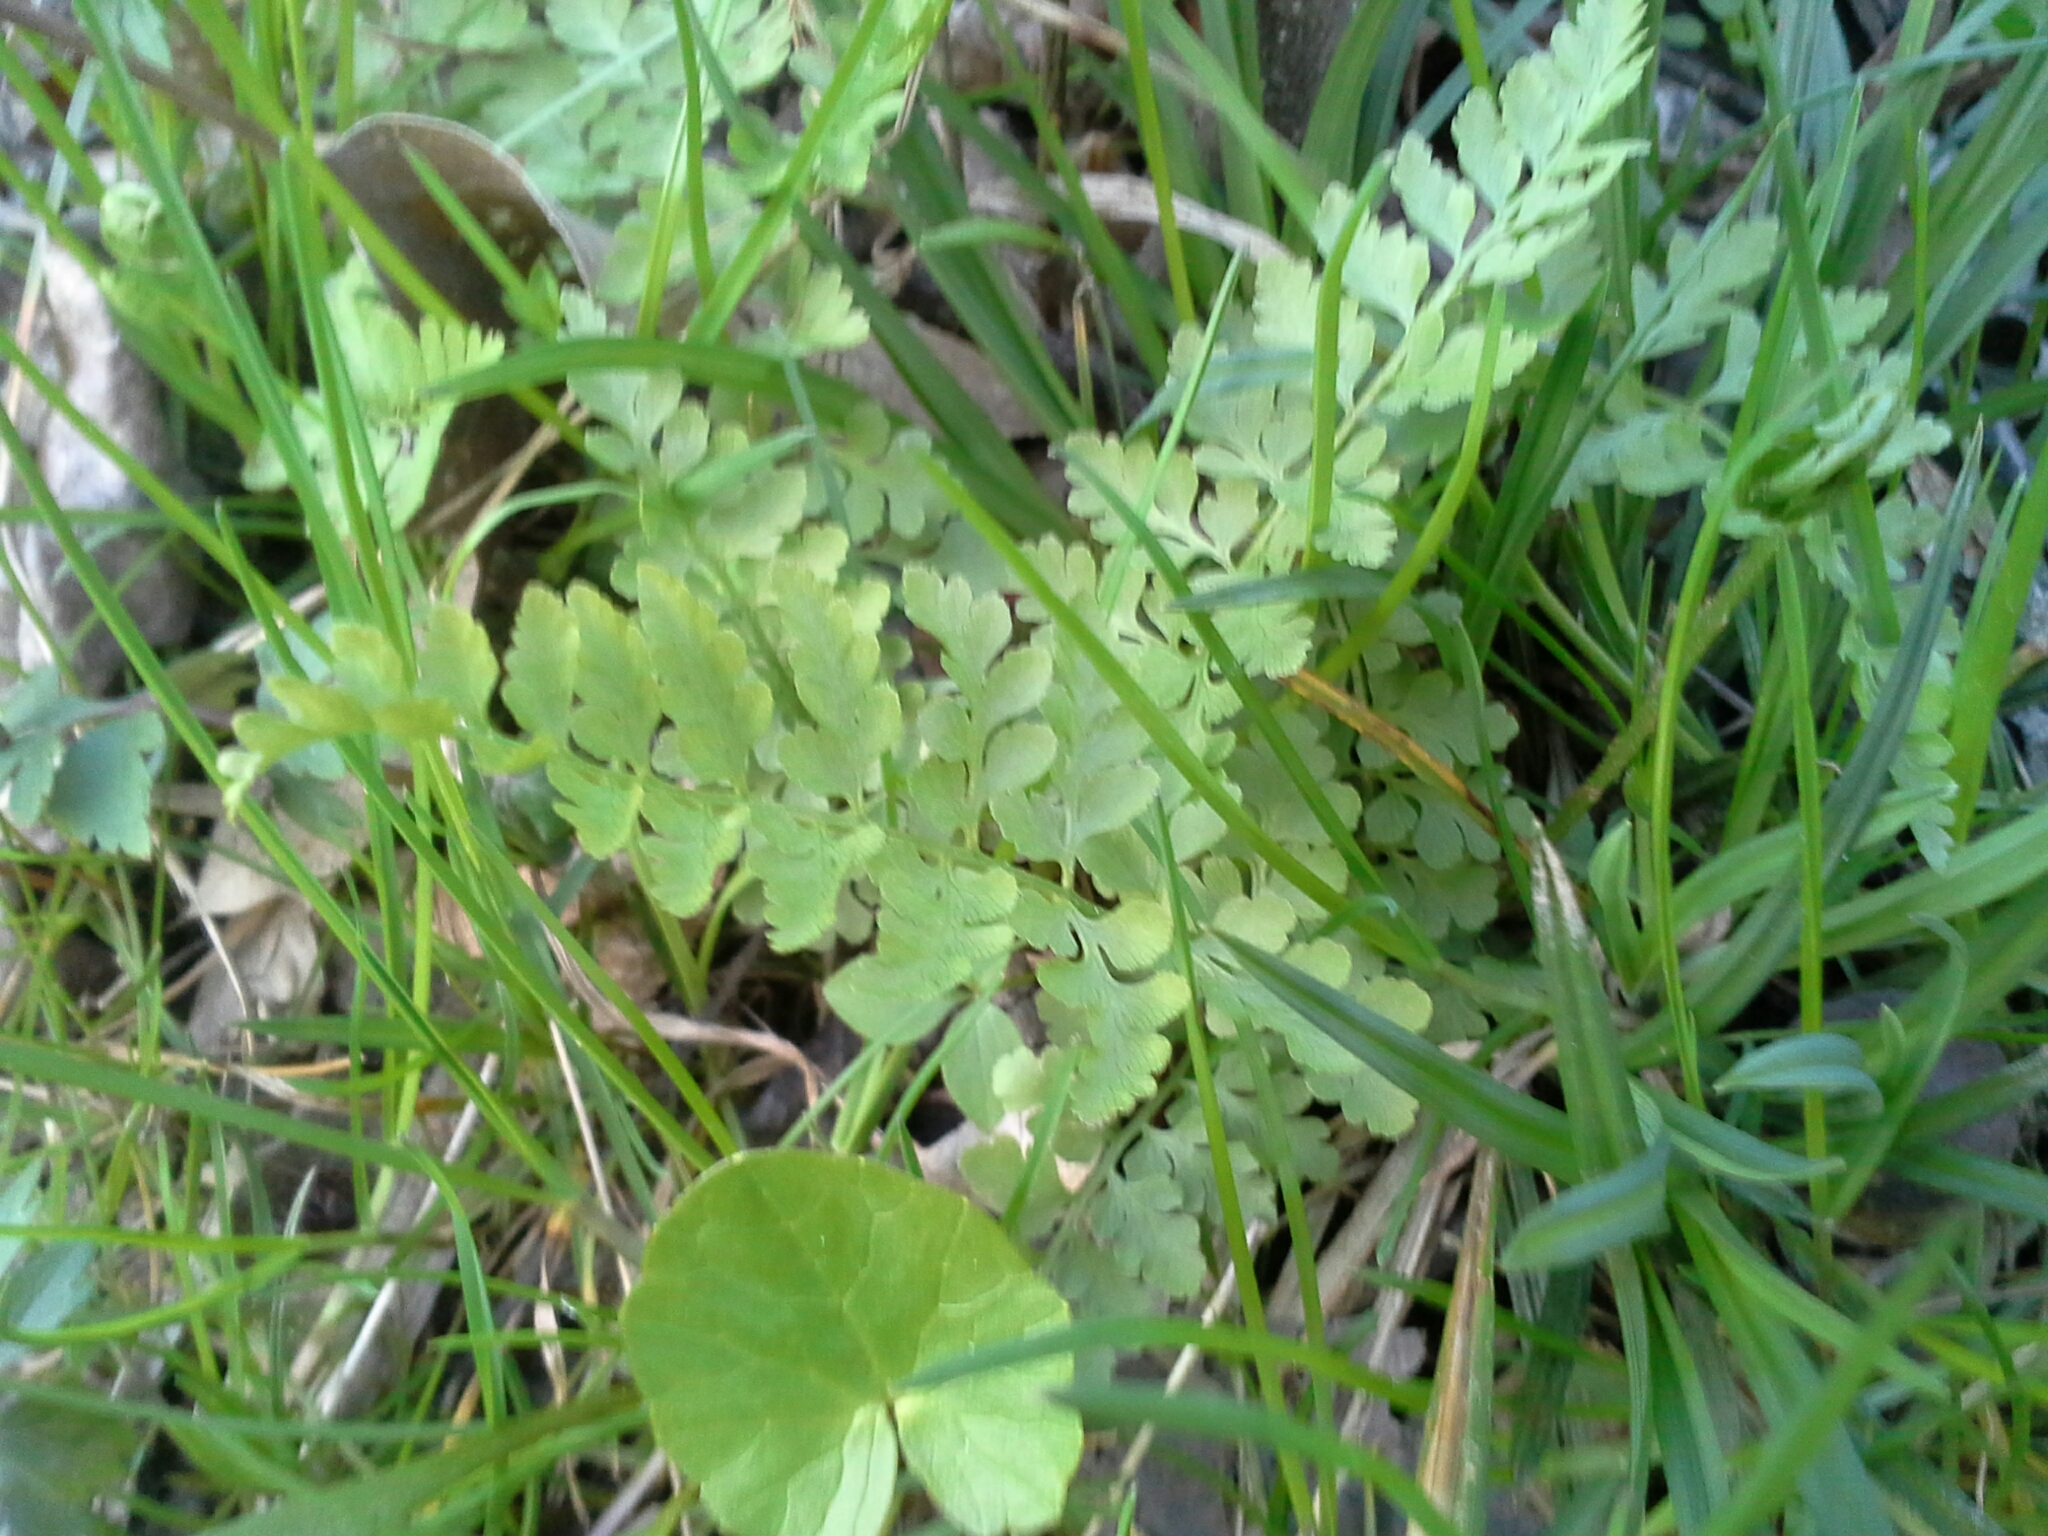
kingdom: Plantae
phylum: Tracheophyta
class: Polypodiopsida
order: Polypodiales
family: Cystopteridaceae
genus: Cystopteris
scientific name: Cystopteris protrusa
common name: Lowland brittle fern
